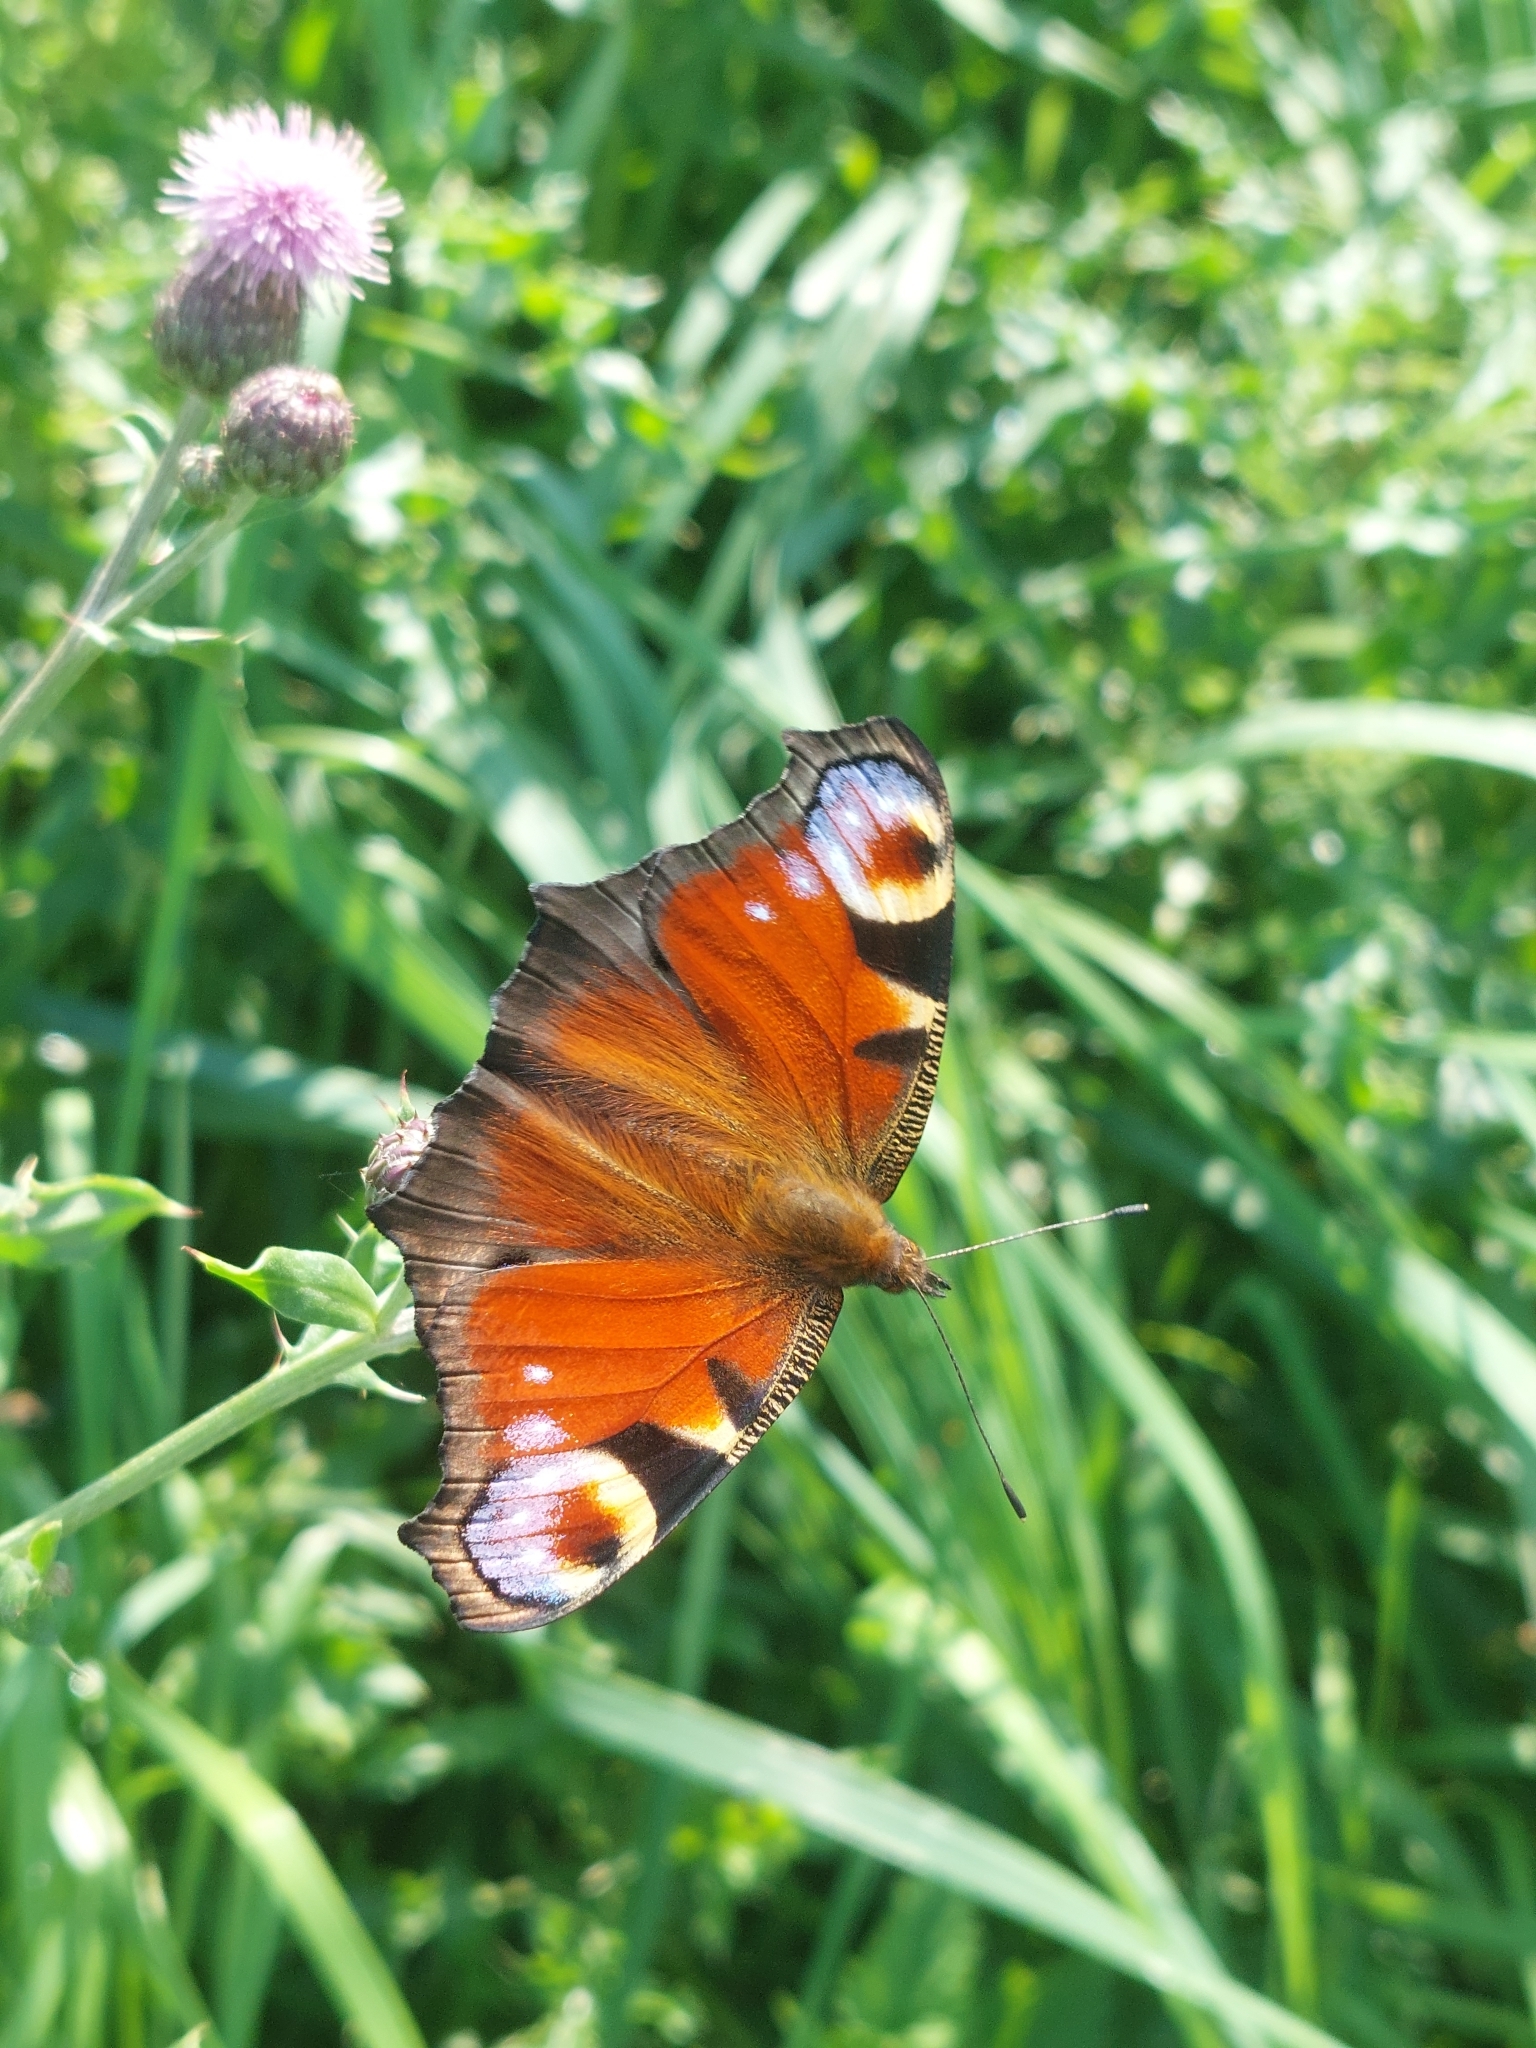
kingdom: Animalia
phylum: Arthropoda
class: Insecta
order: Lepidoptera
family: Nymphalidae
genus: Aglais
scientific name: Aglais io
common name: Peacock
